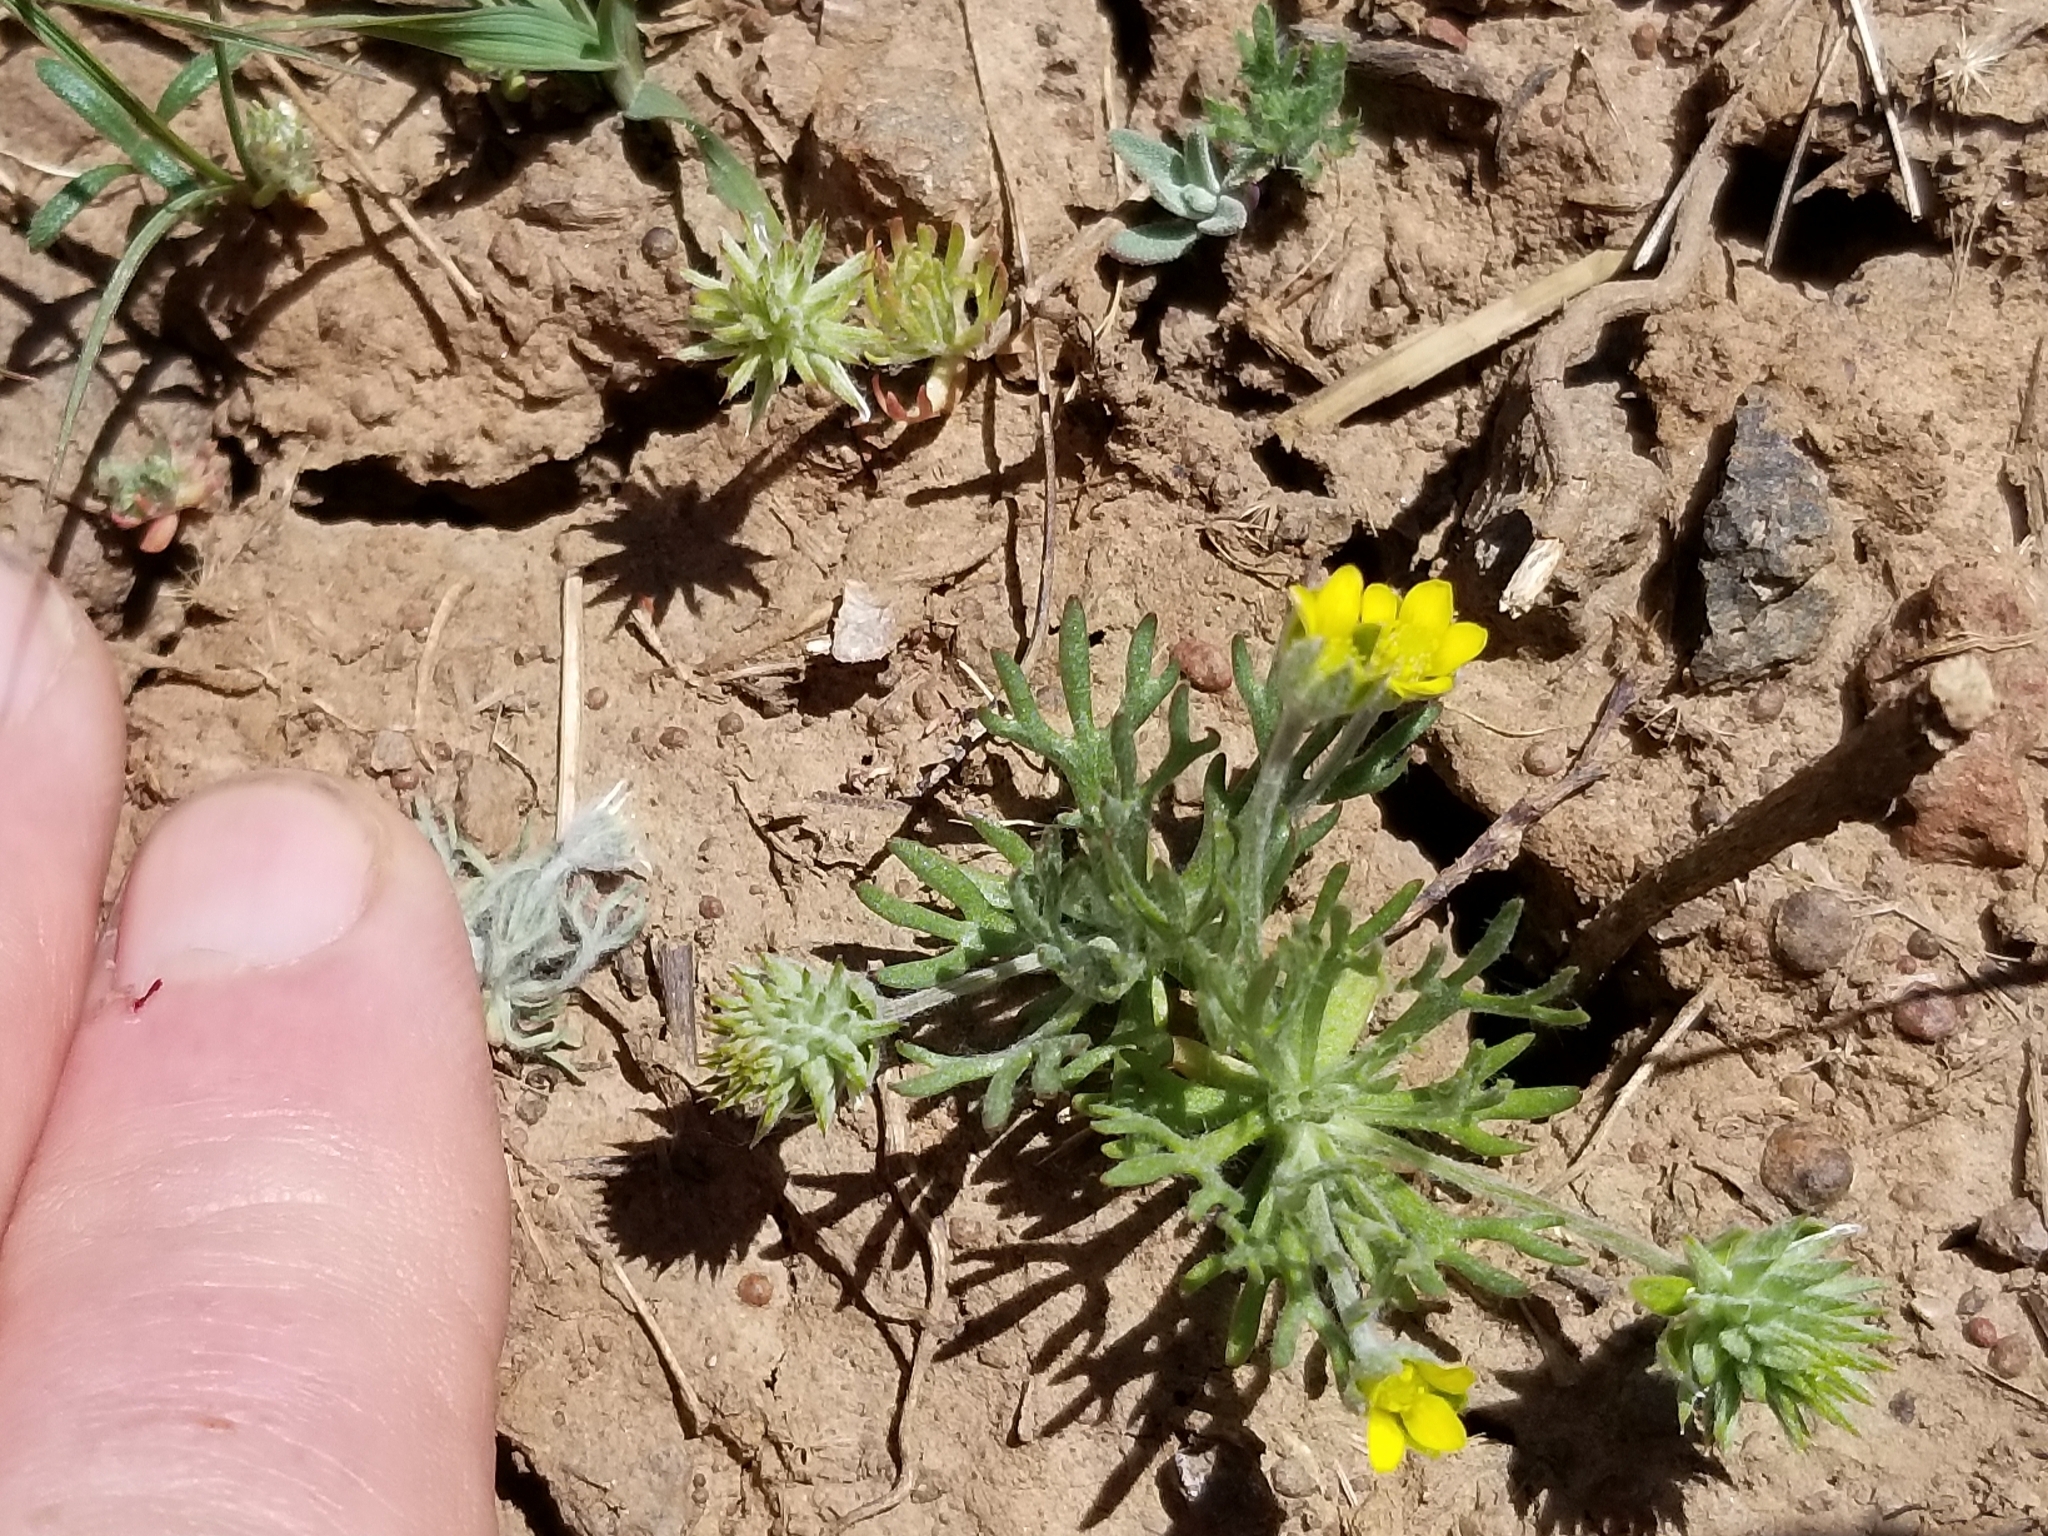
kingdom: Plantae
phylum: Tracheophyta
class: Magnoliopsida
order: Ranunculales
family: Ranunculaceae
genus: Ceratocephala
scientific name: Ceratocephala orthoceras
